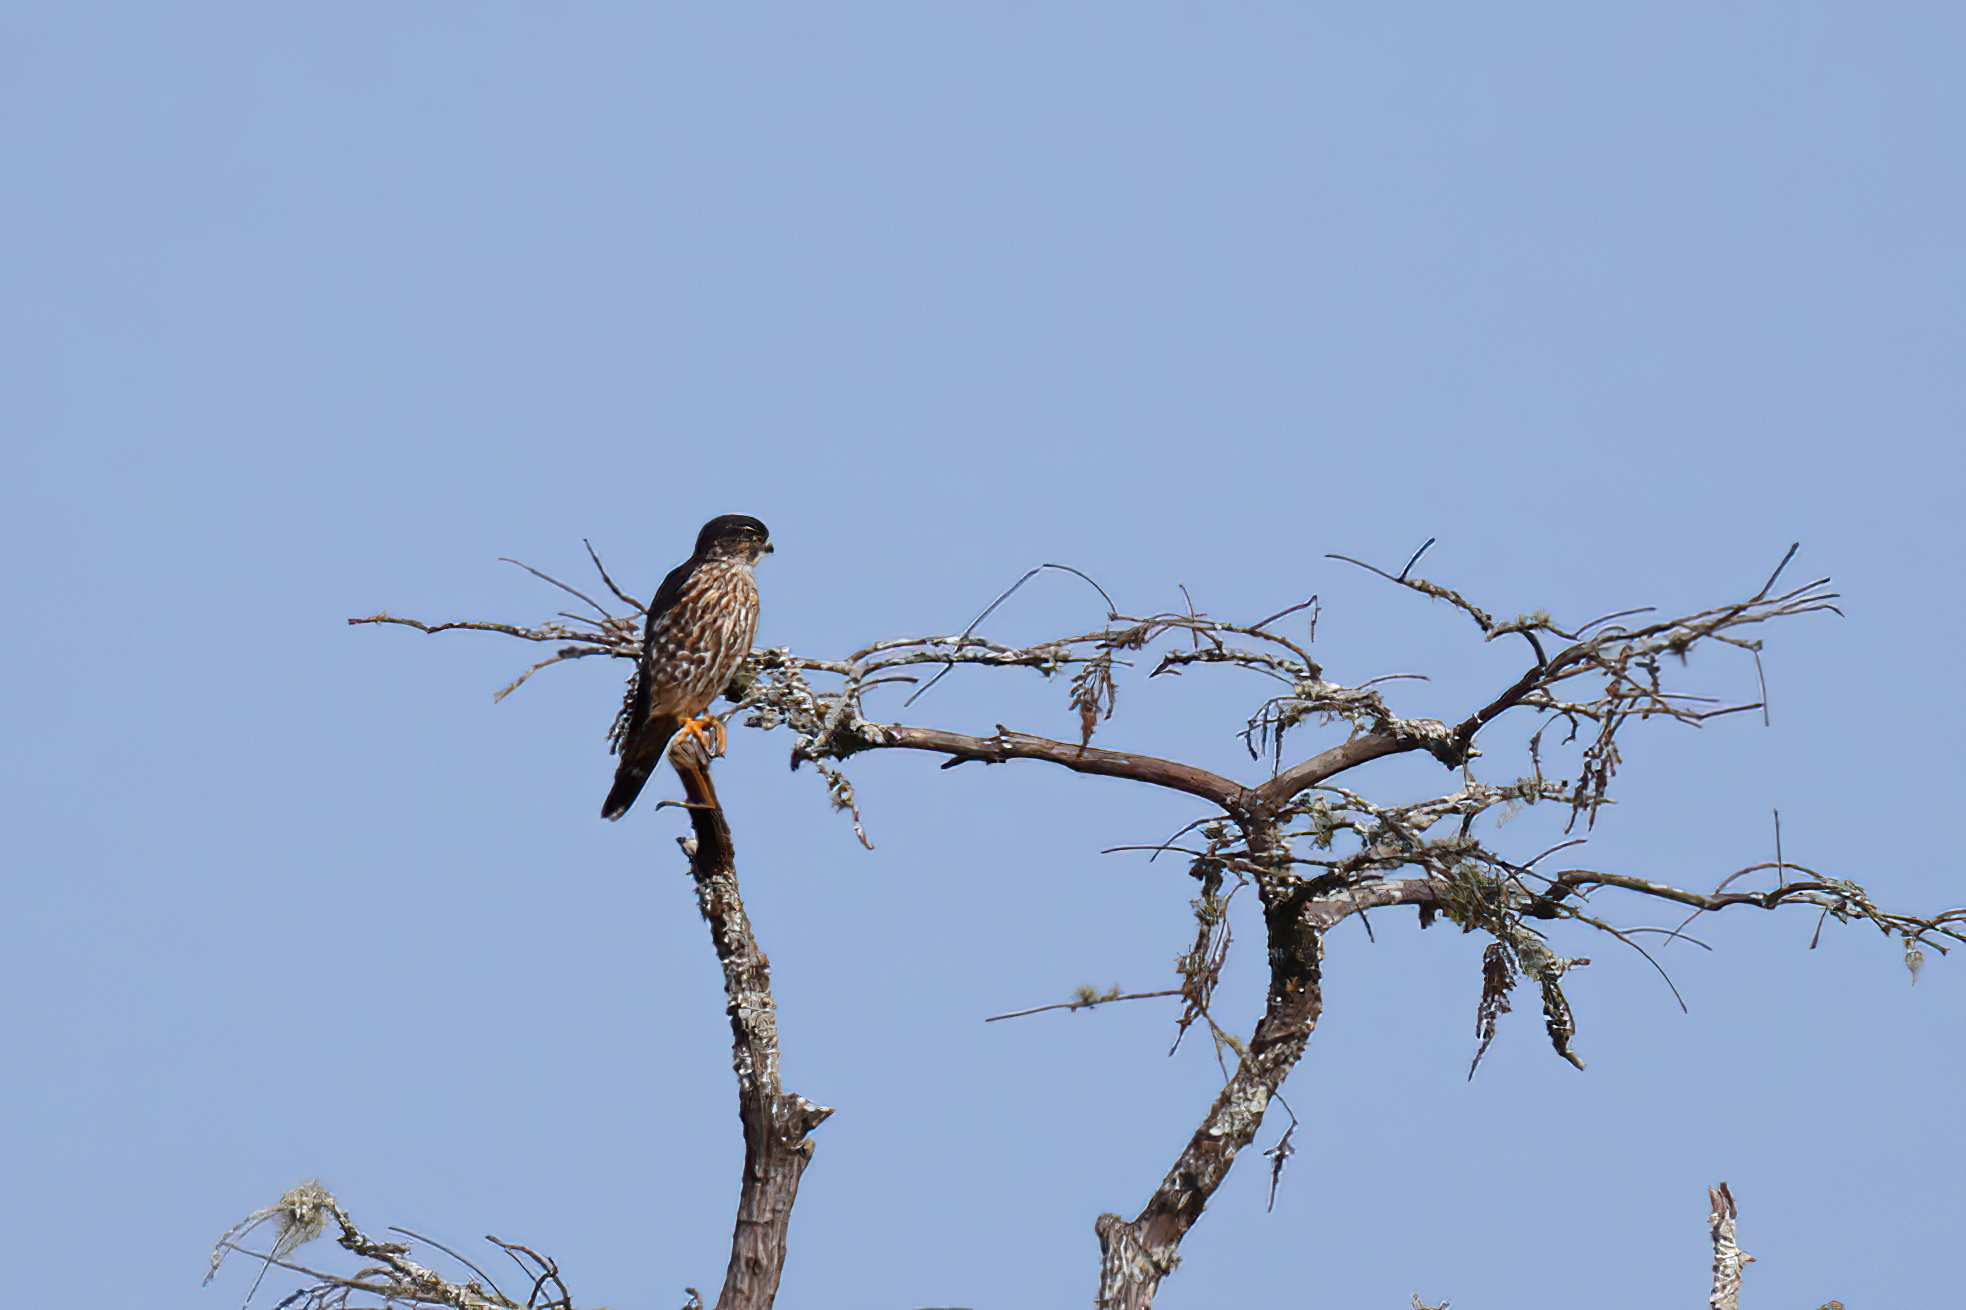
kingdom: Animalia
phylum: Chordata
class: Aves
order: Falconiformes
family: Falconidae
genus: Falco
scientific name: Falco columbarius
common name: Merlin
